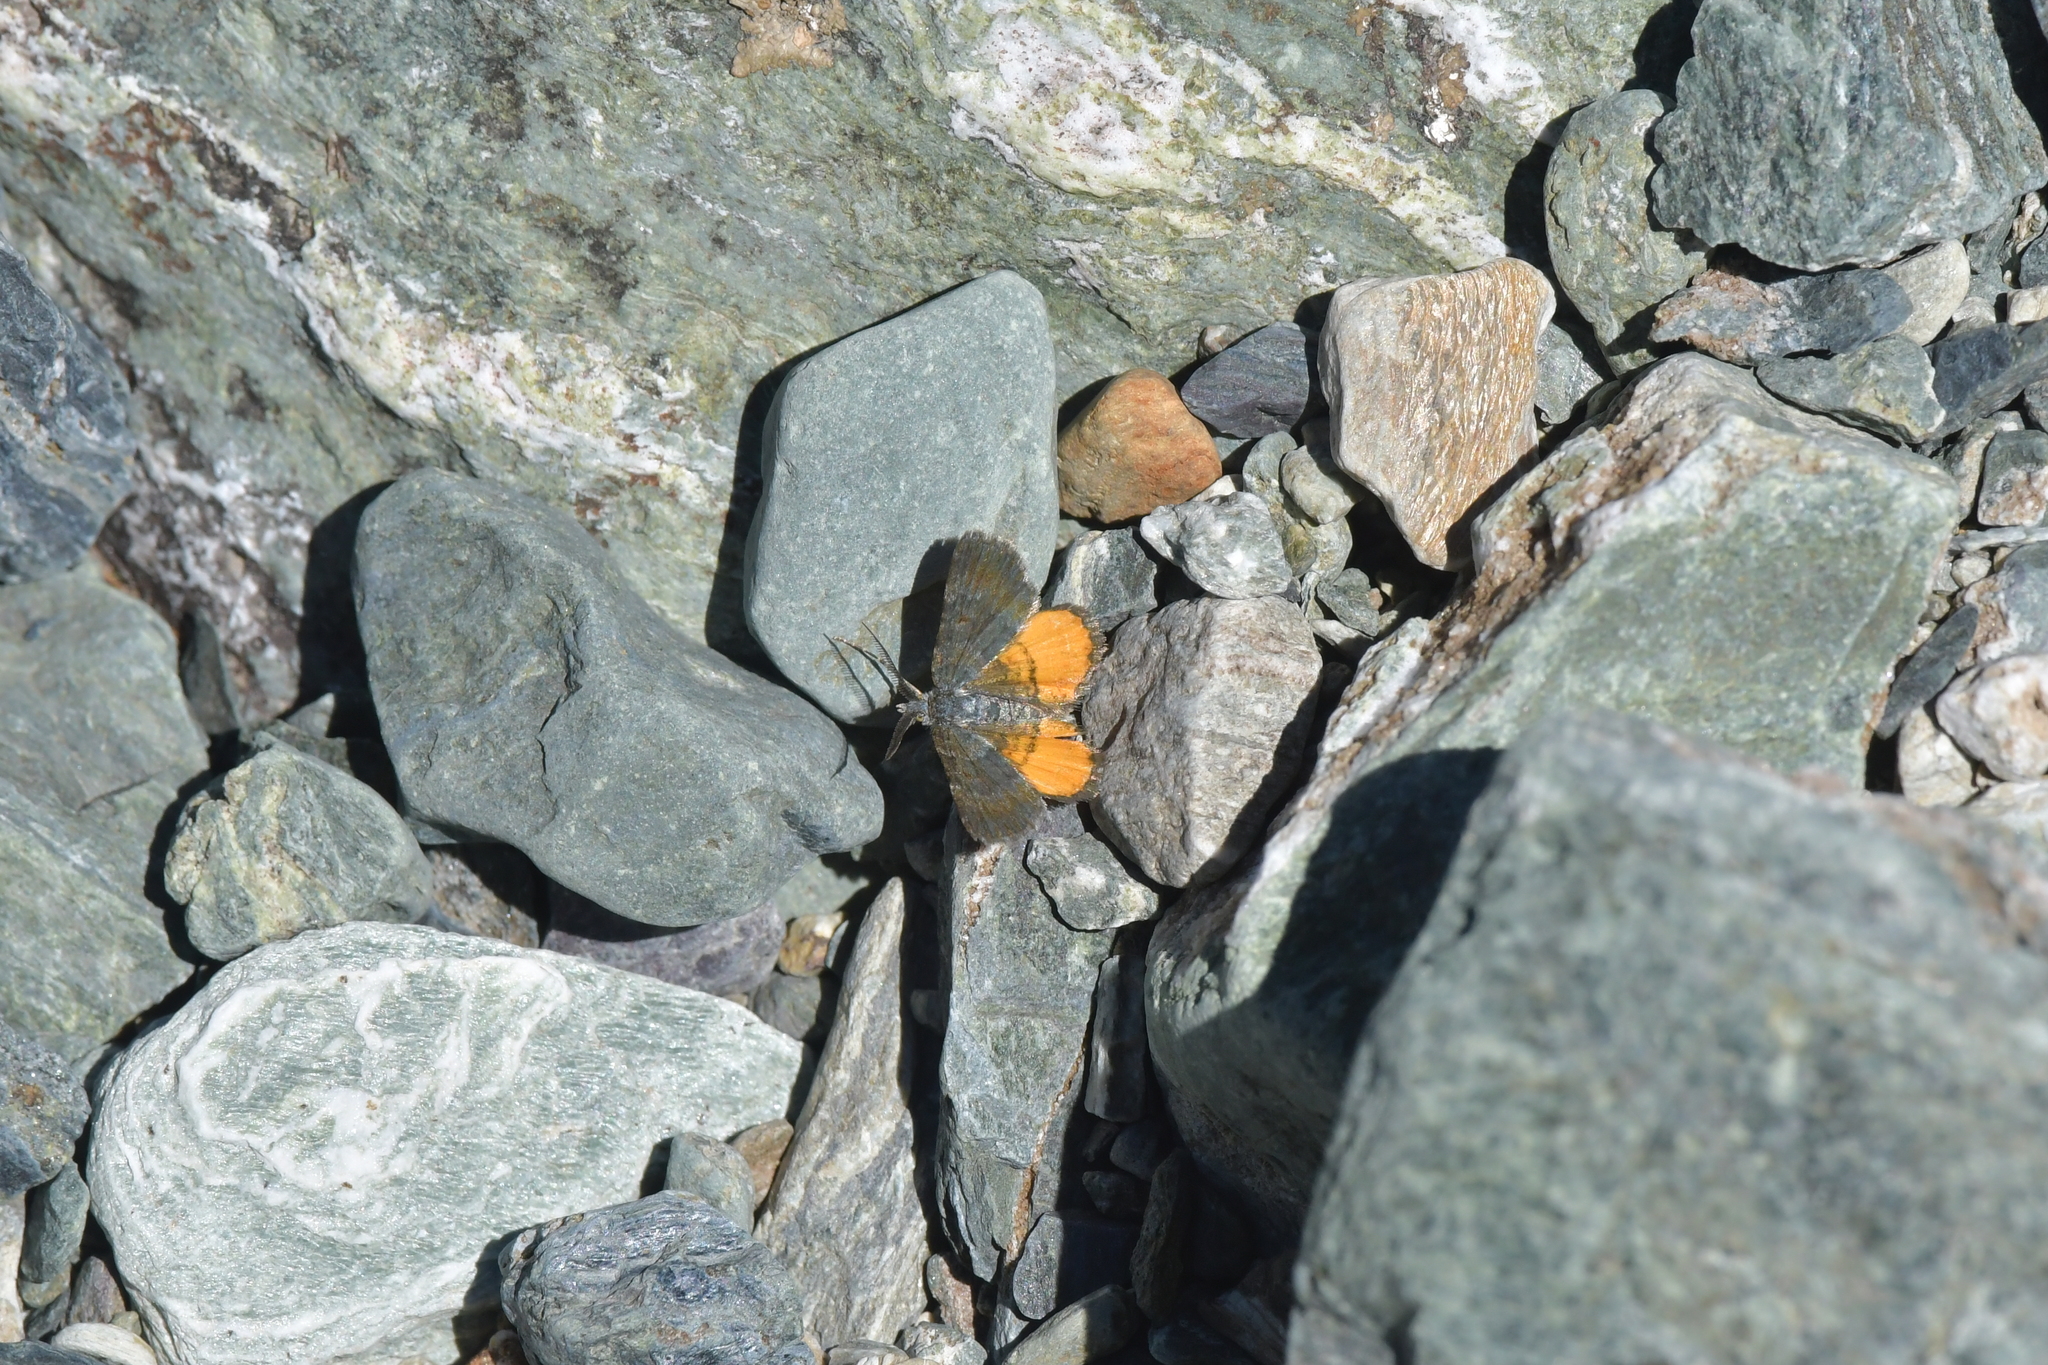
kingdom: Animalia
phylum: Arthropoda
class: Insecta
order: Lepidoptera
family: Geometridae
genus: Paranotoreas
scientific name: Paranotoreas zopyra
